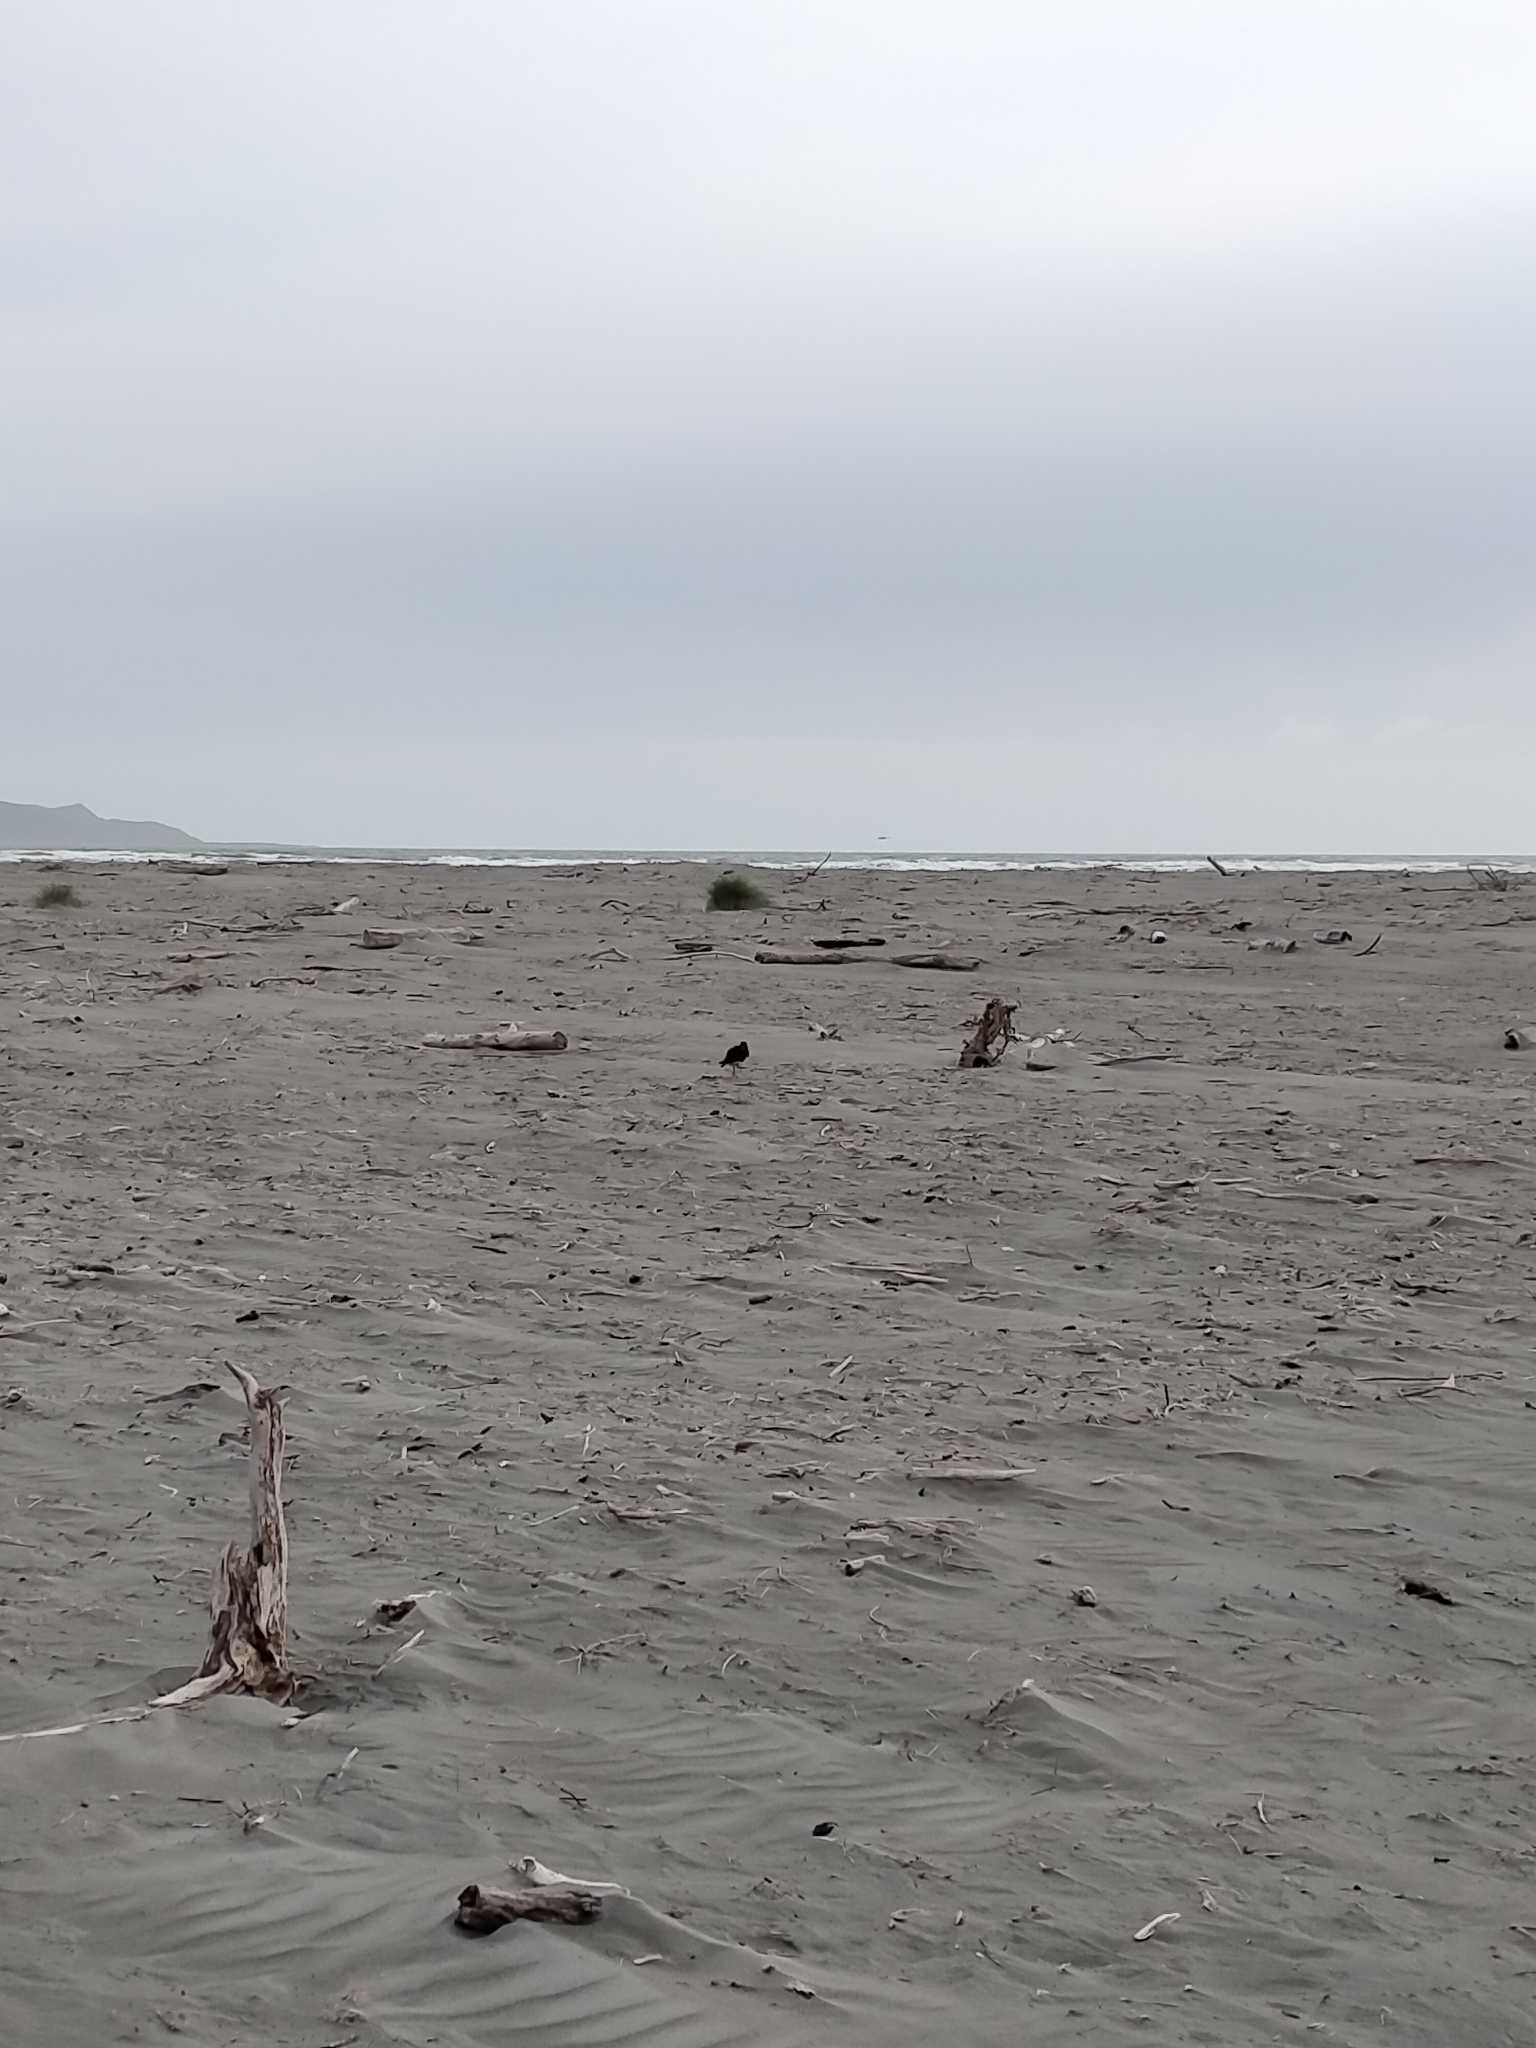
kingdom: Animalia
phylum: Chordata
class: Aves
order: Charadriiformes
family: Haematopodidae
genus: Haematopus
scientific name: Haematopus unicolor
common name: Variable oystercatcher
